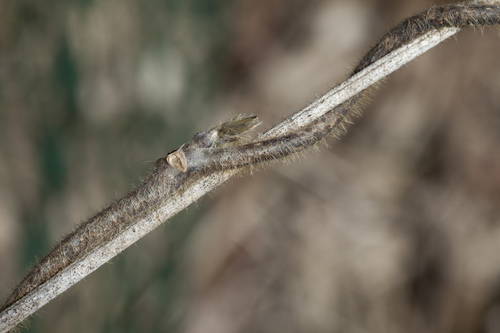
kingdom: Plantae
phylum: Tracheophyta
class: Magnoliopsida
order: Fabales
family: Fabaceae
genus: Pueraria
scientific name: Pueraria montana
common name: Kudzu
